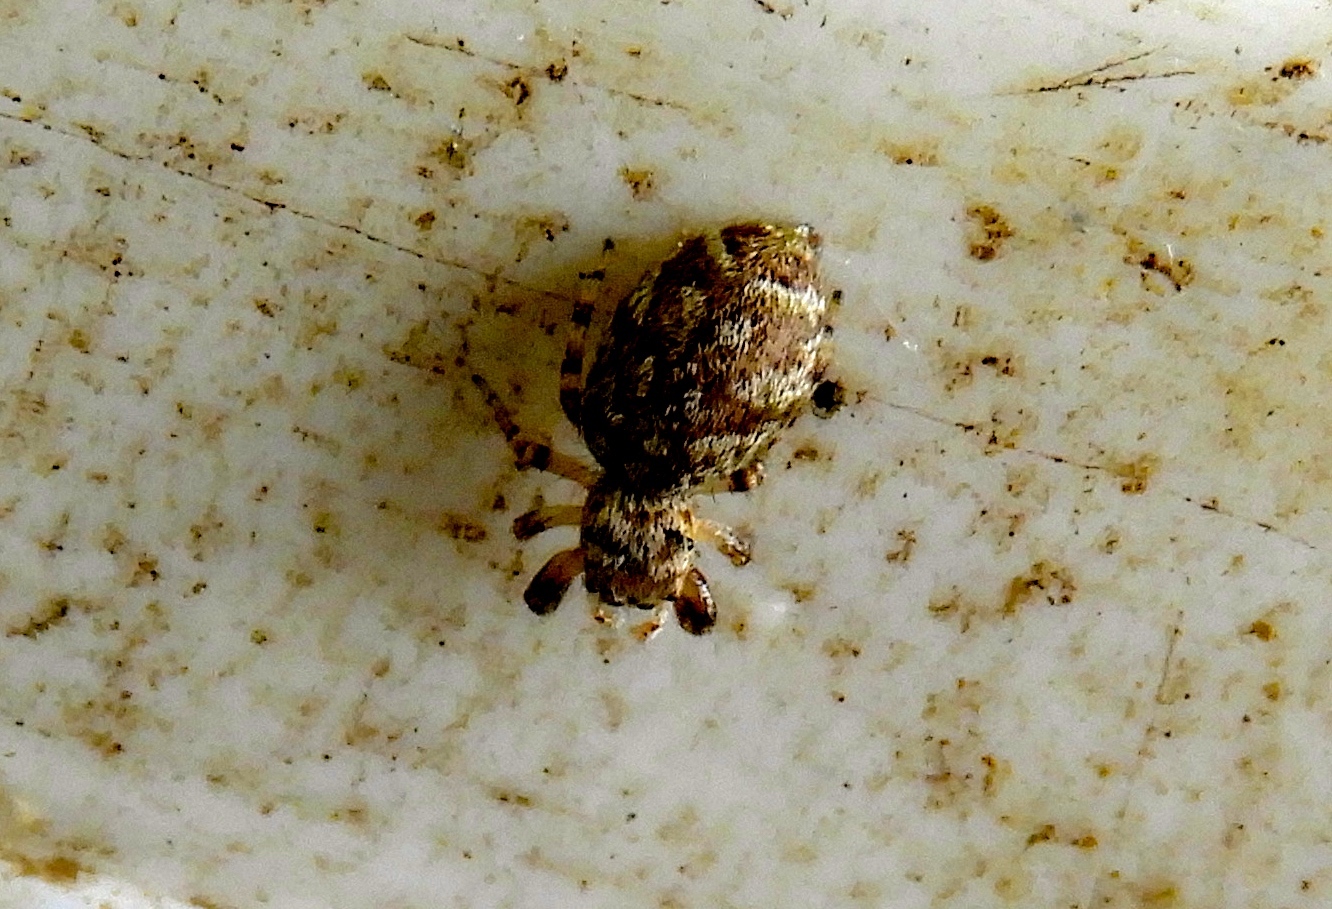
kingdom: Animalia
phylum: Arthropoda
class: Arachnida
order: Araneae
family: Salticidae
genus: Pelegrina
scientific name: Pelegrina
